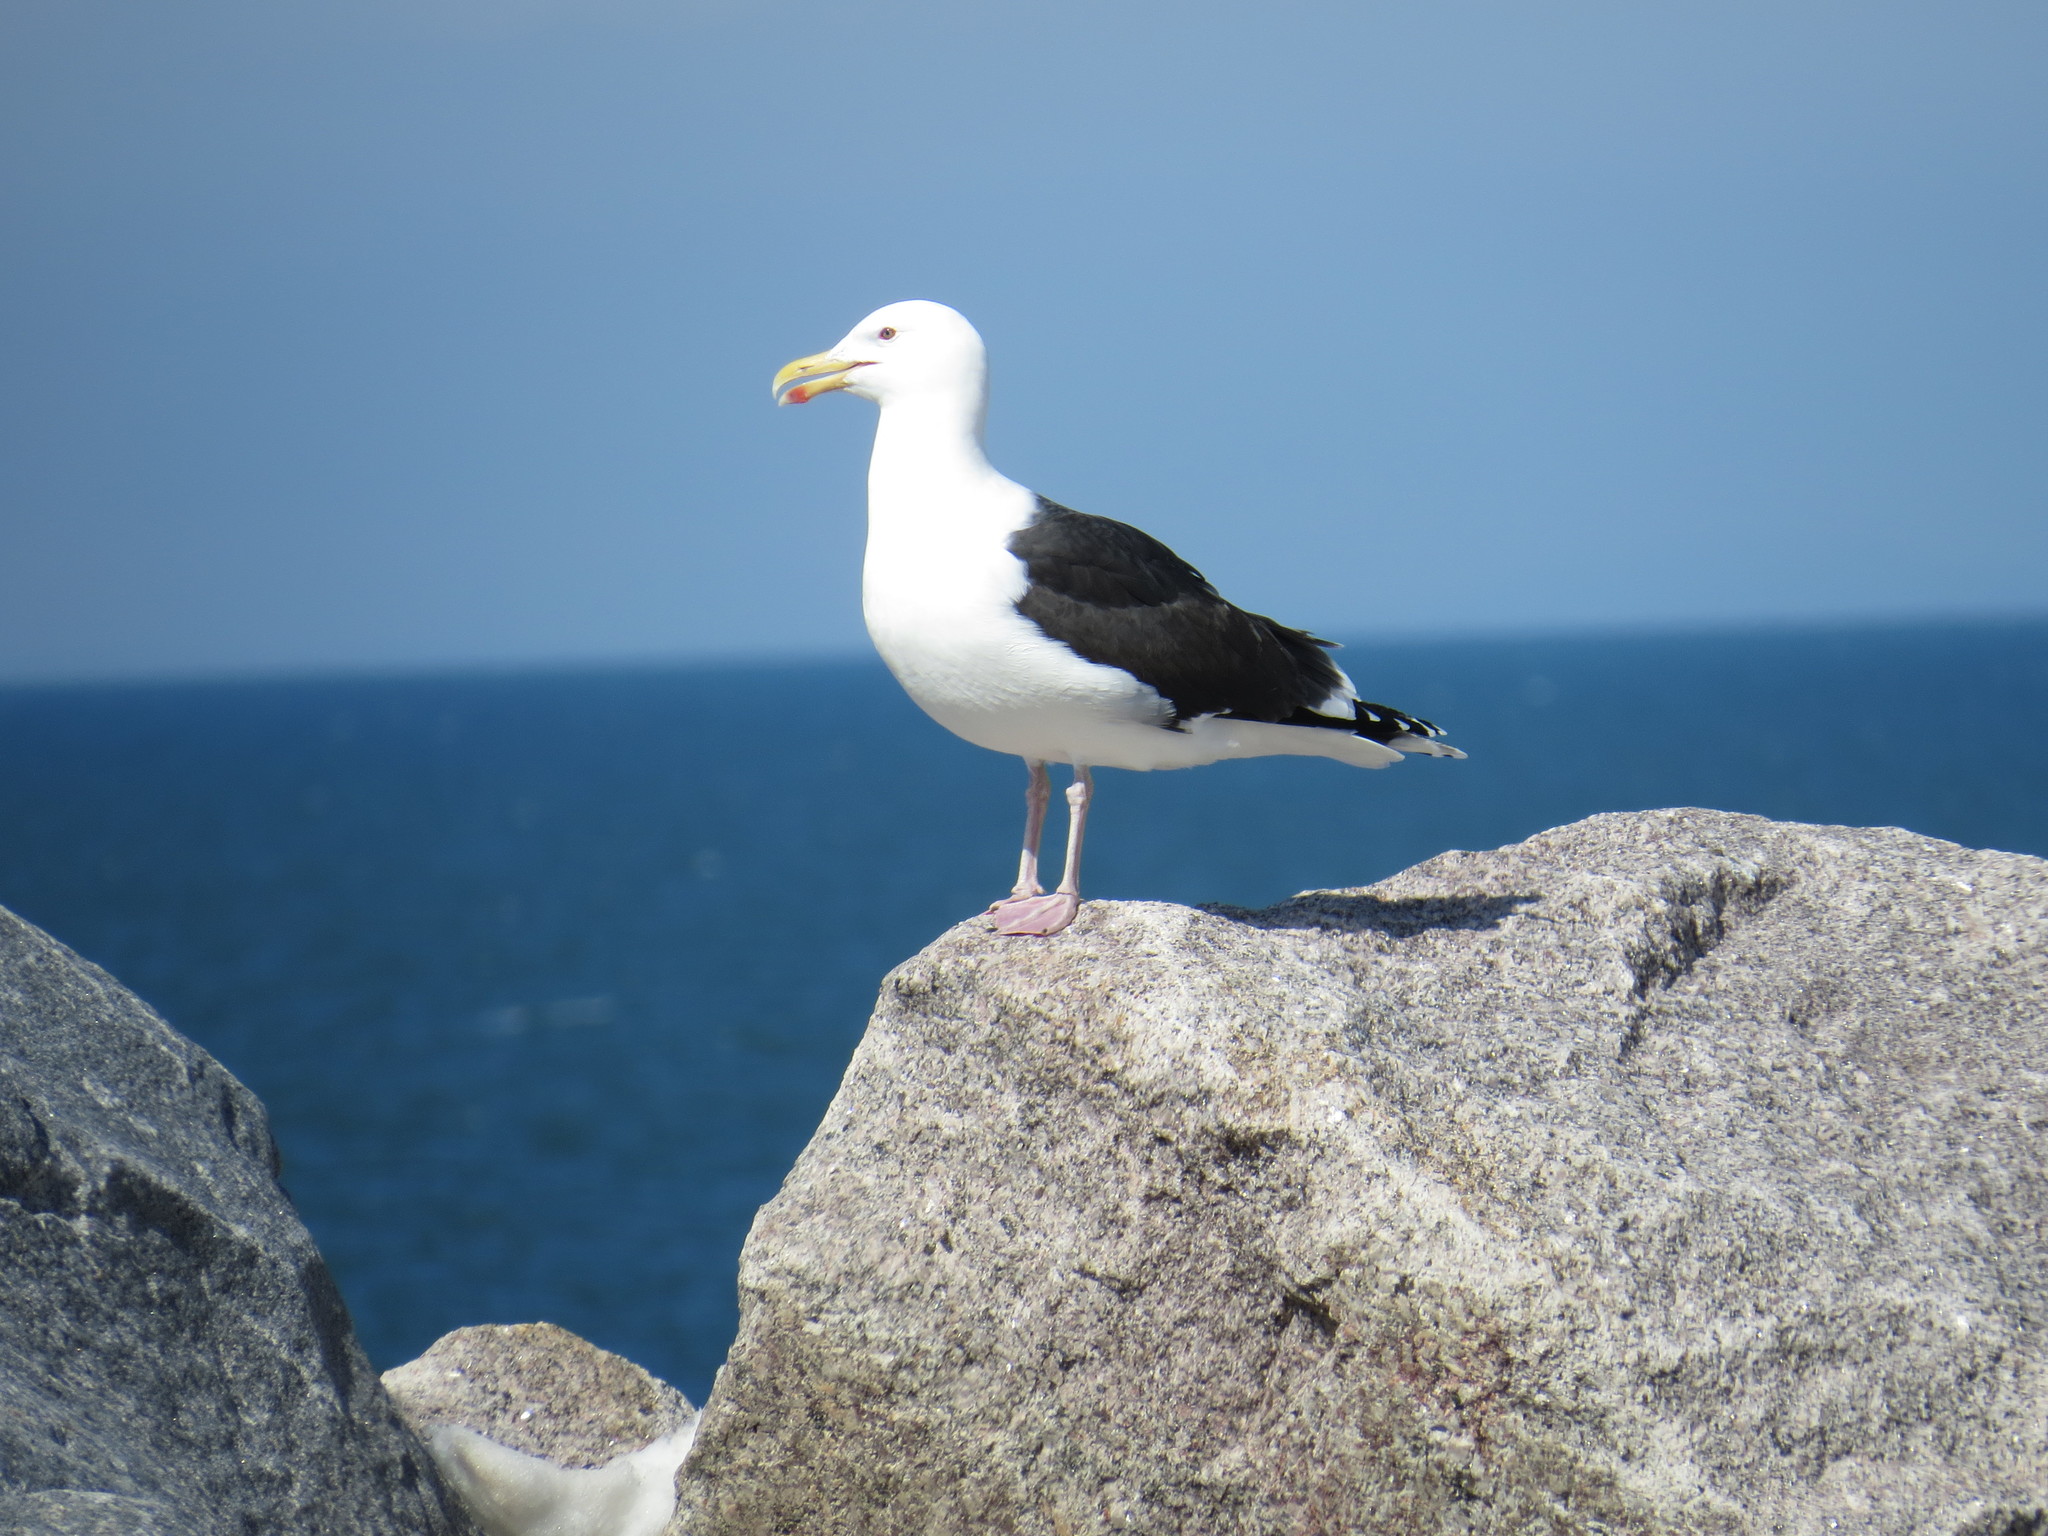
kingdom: Animalia
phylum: Chordata
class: Aves
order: Charadriiformes
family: Laridae
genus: Larus
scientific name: Larus marinus
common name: Great black-backed gull
